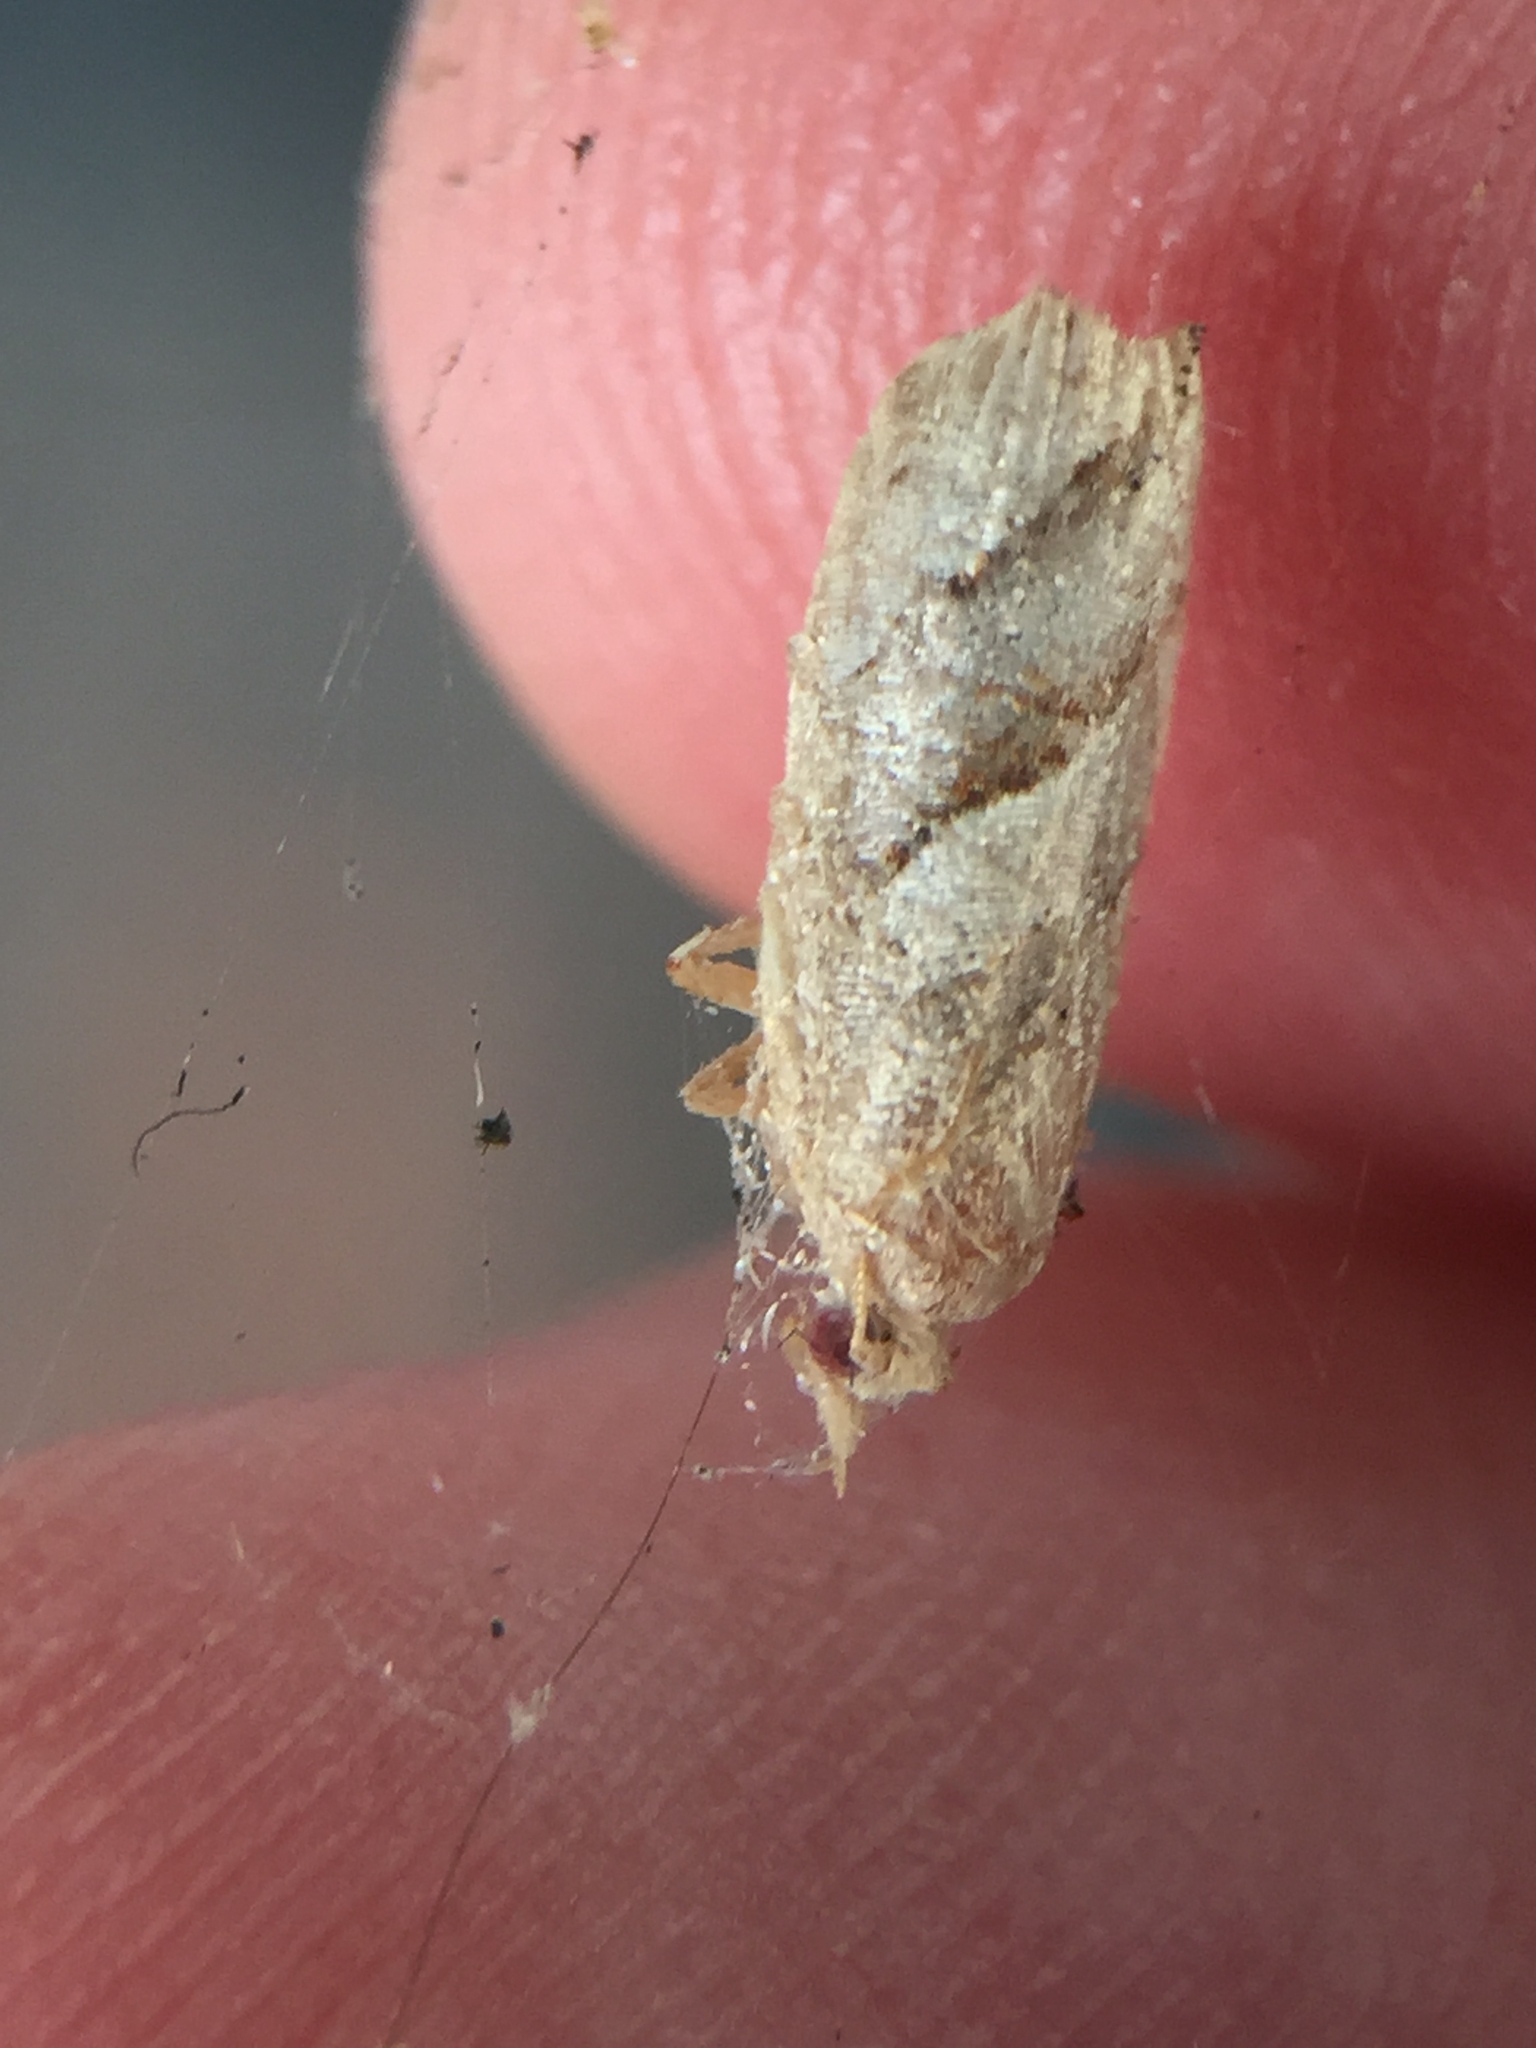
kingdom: Animalia
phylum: Arthropoda
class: Insecta
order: Lepidoptera
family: Tortricidae
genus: Apoctena
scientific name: Apoctena orthocopa
